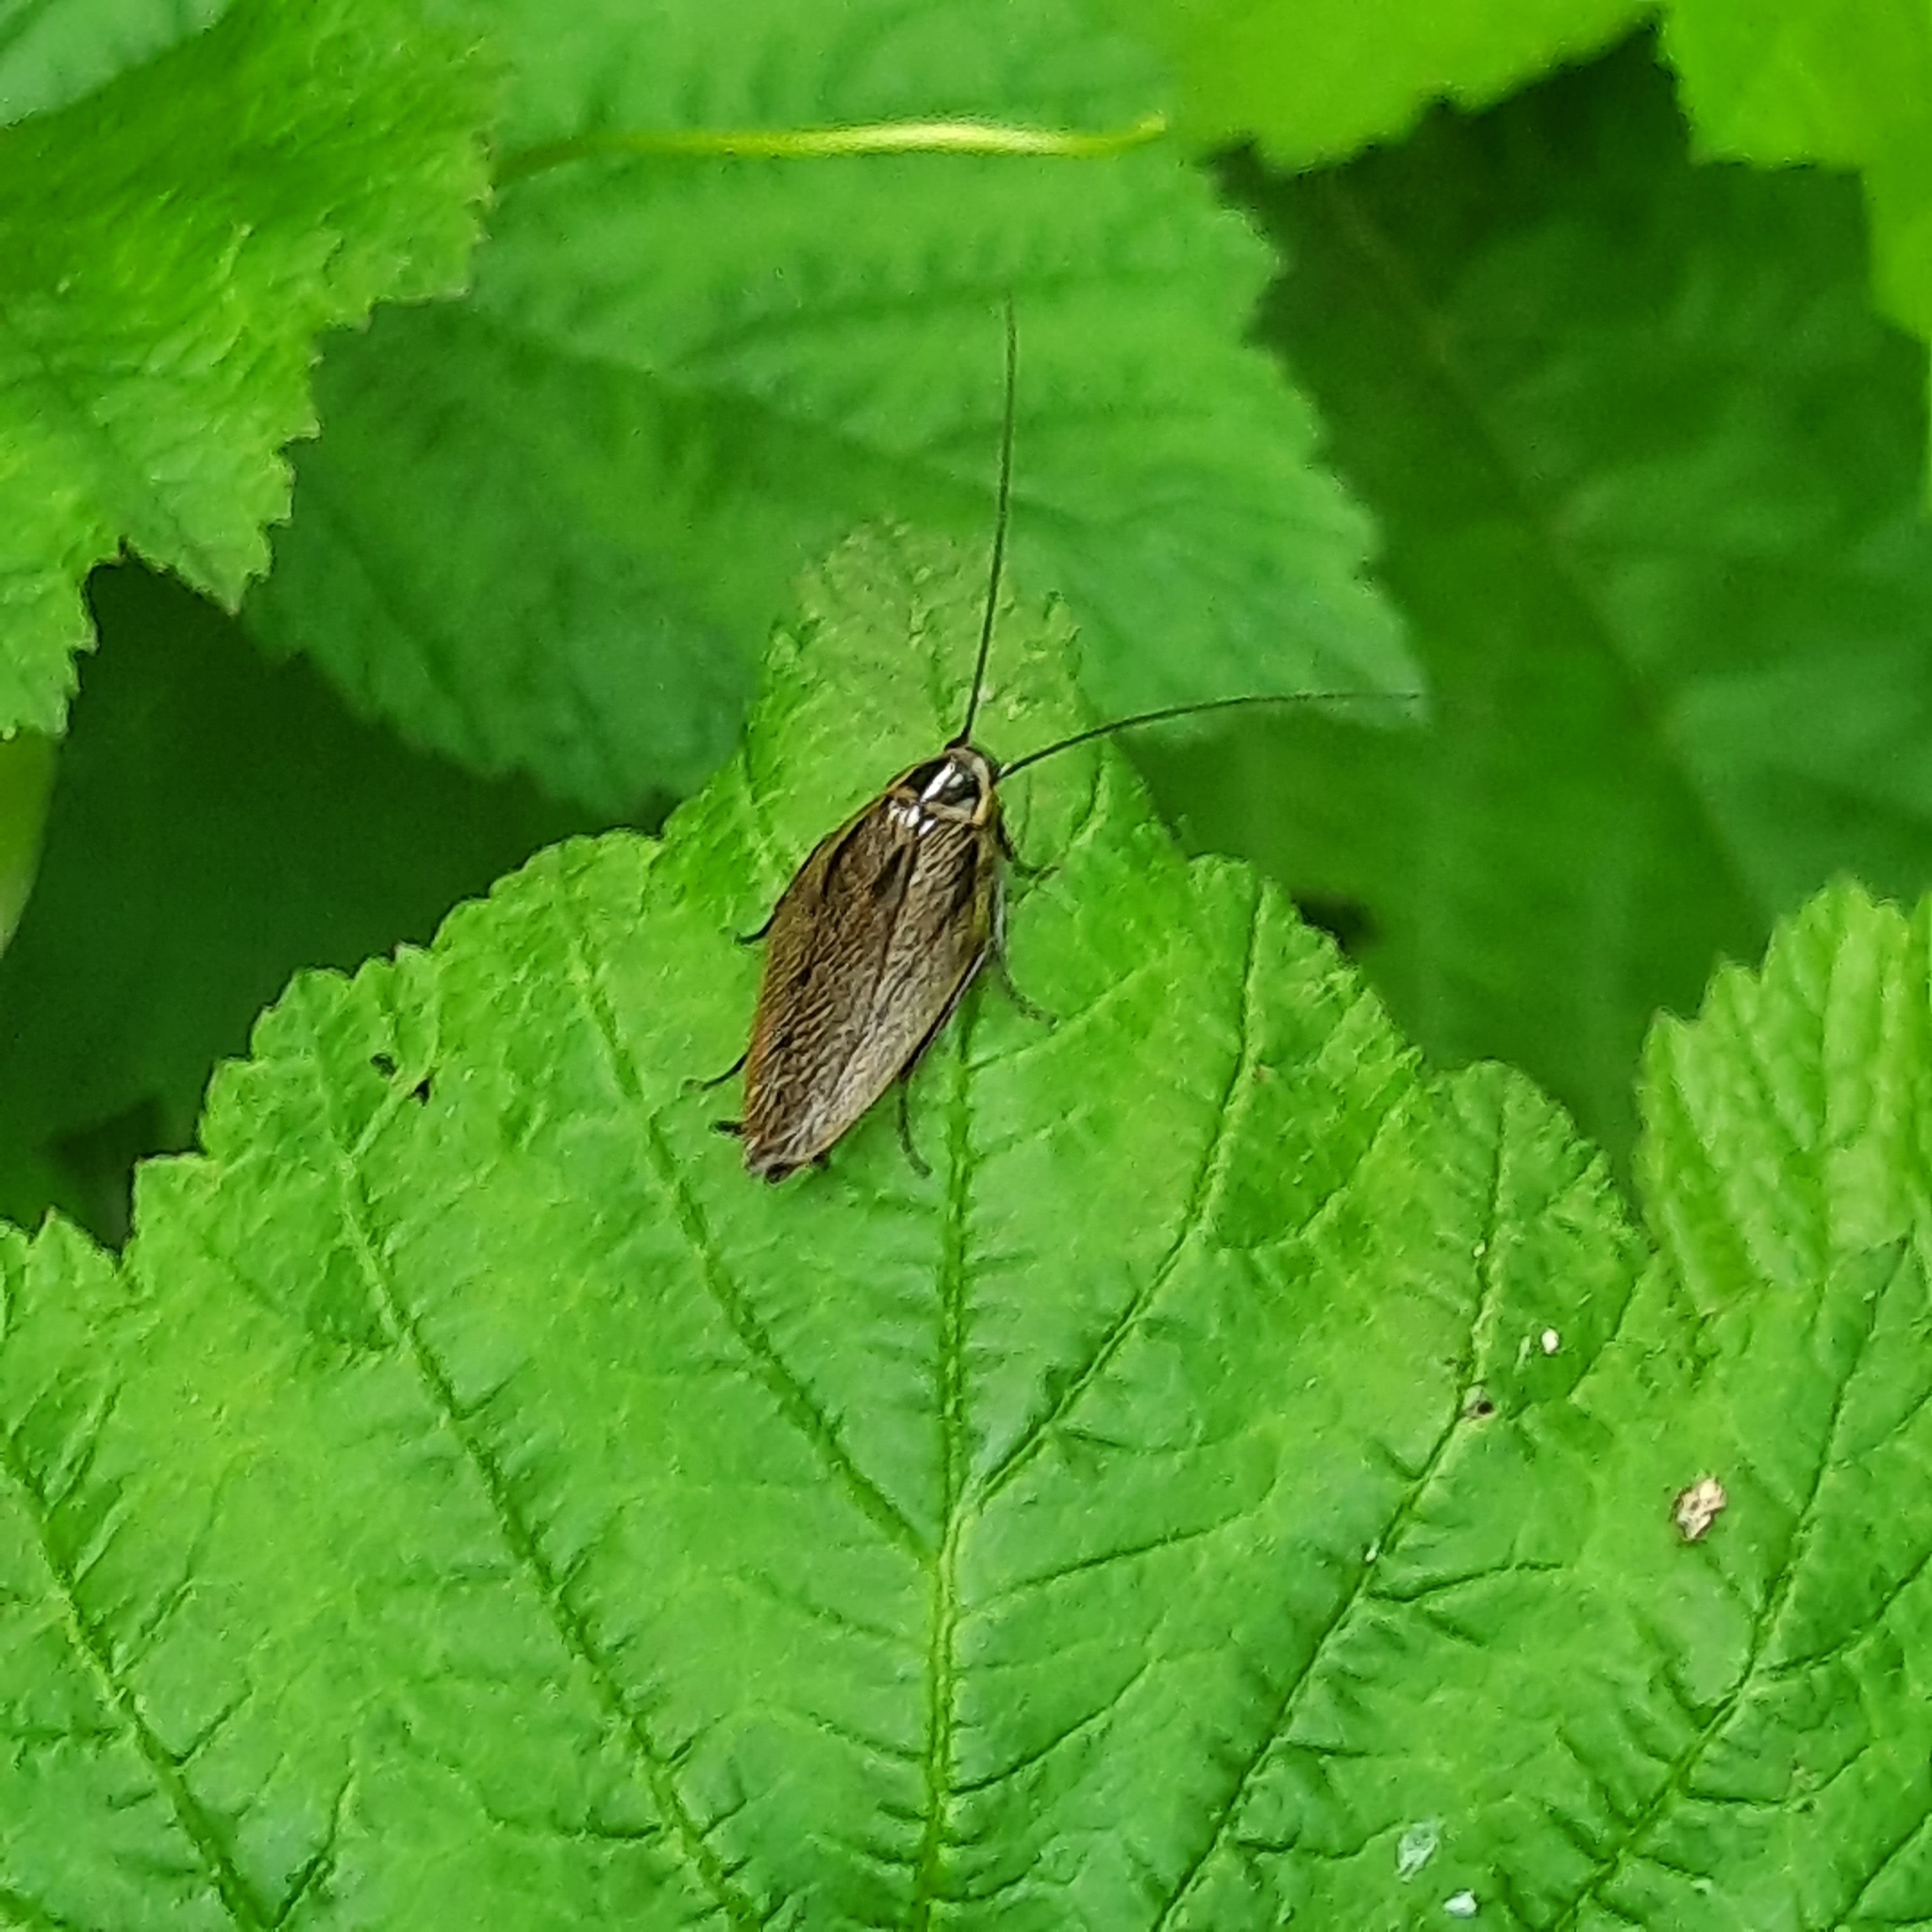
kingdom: Animalia
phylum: Arthropoda
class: Insecta
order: Blattodea
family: Ectobiidae
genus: Ectobius
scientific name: Ectobius sylvestris
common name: Forest cockroach
